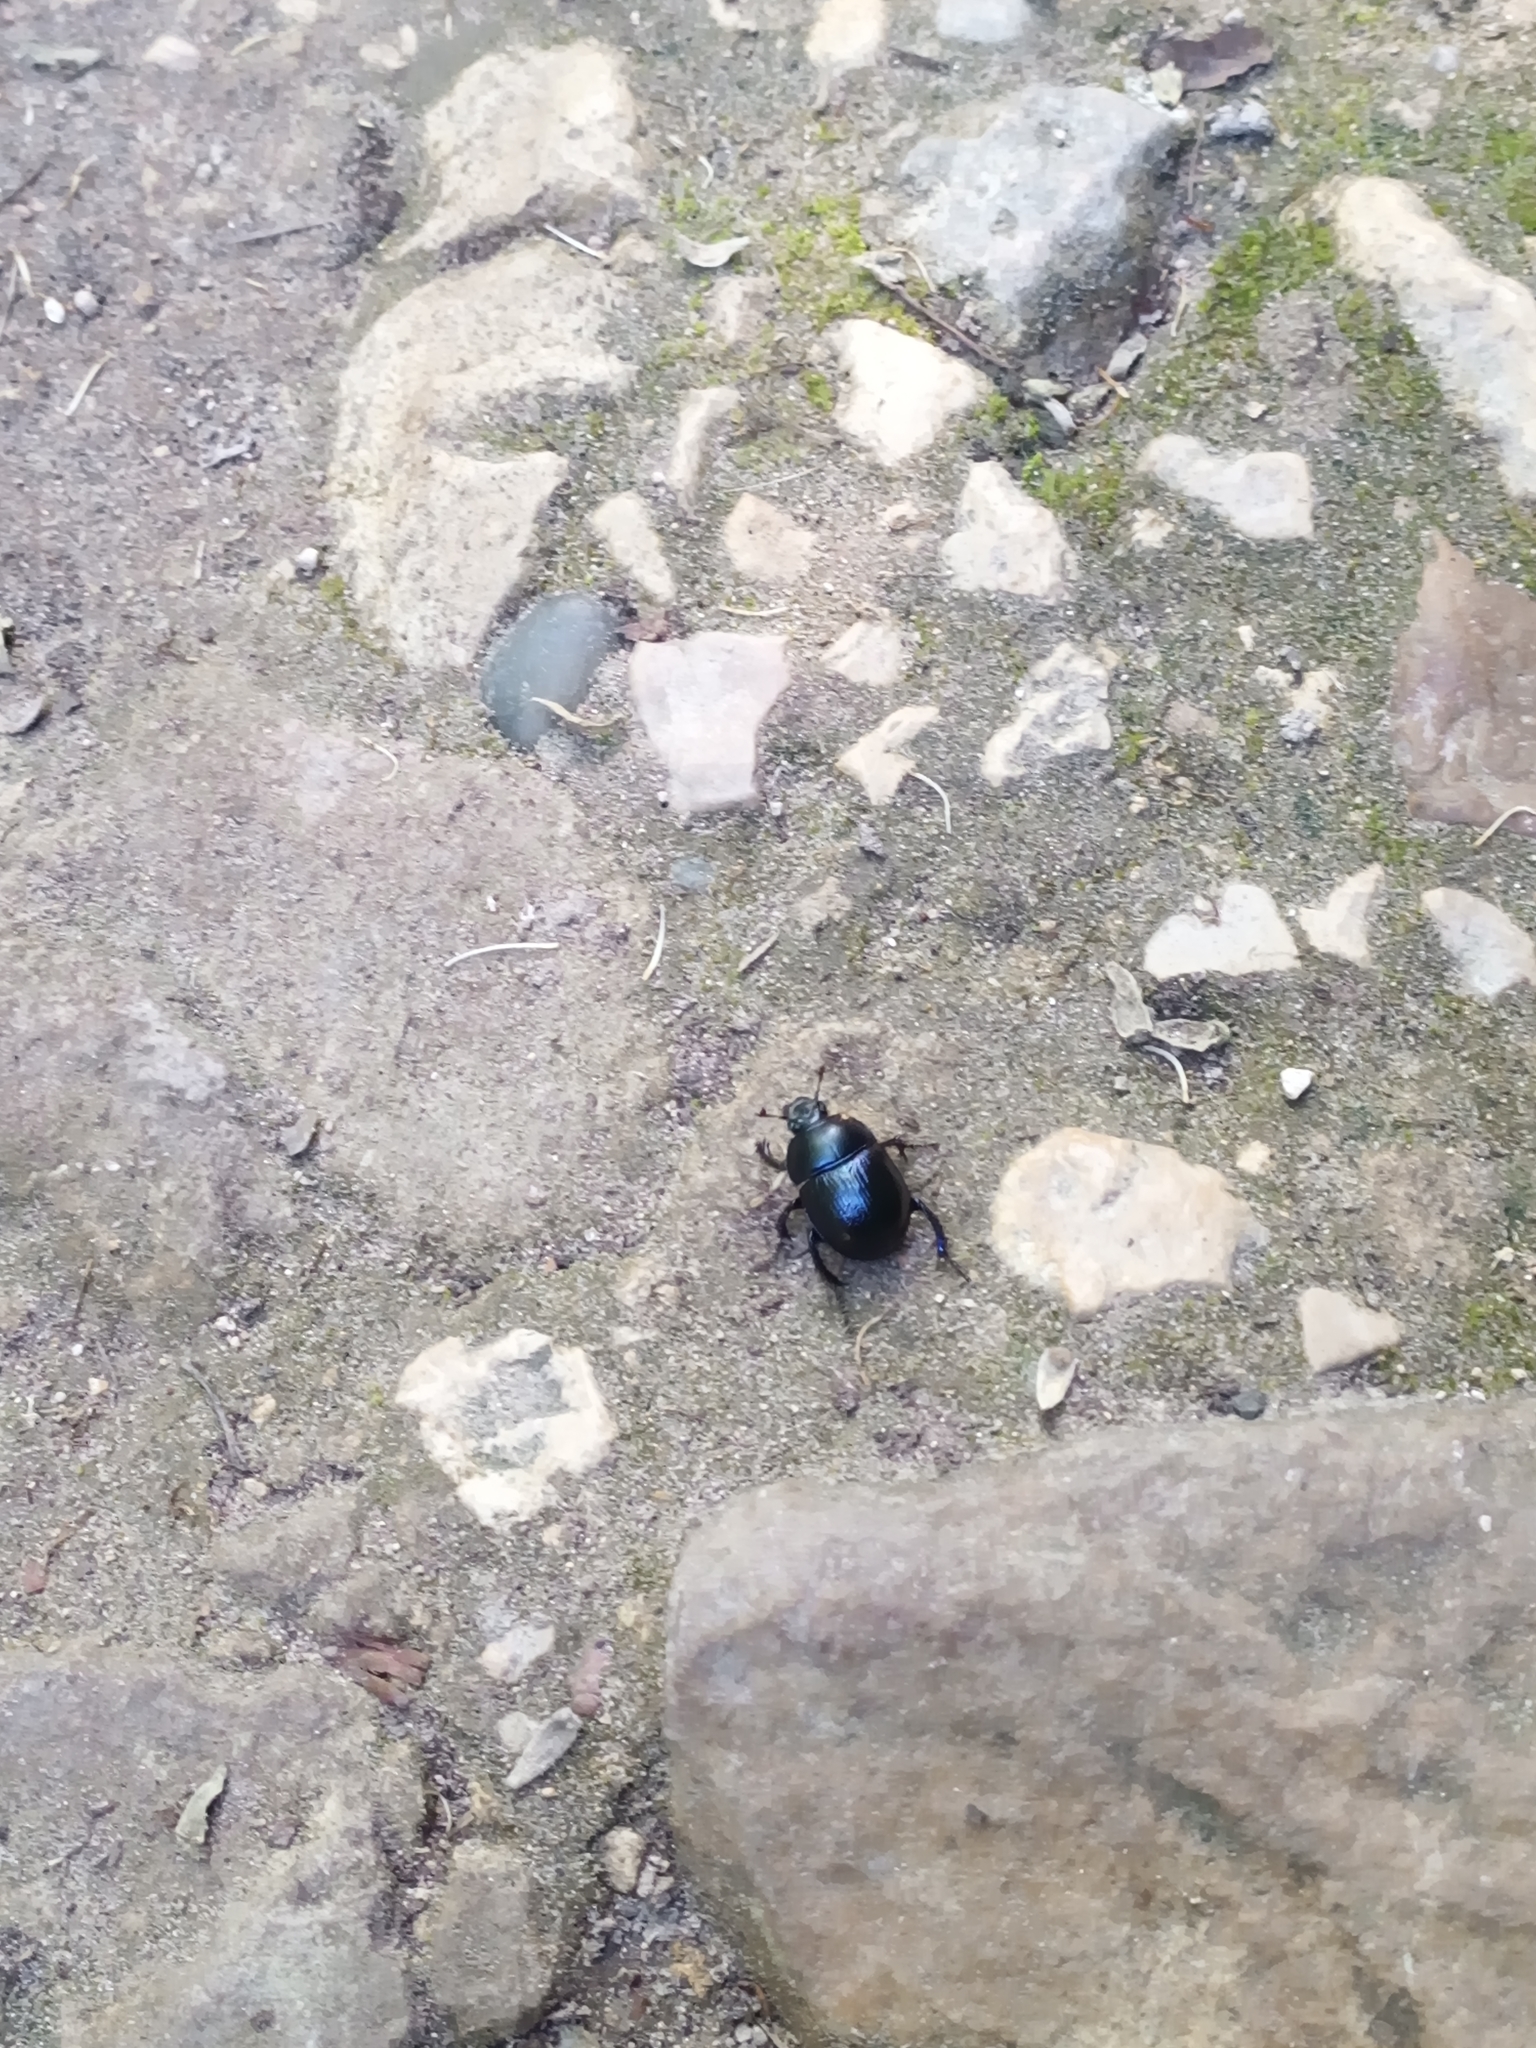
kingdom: Animalia
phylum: Arthropoda
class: Insecta
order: Coleoptera
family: Geotrupidae
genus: Anoplotrupes
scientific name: Anoplotrupes stercorosus
